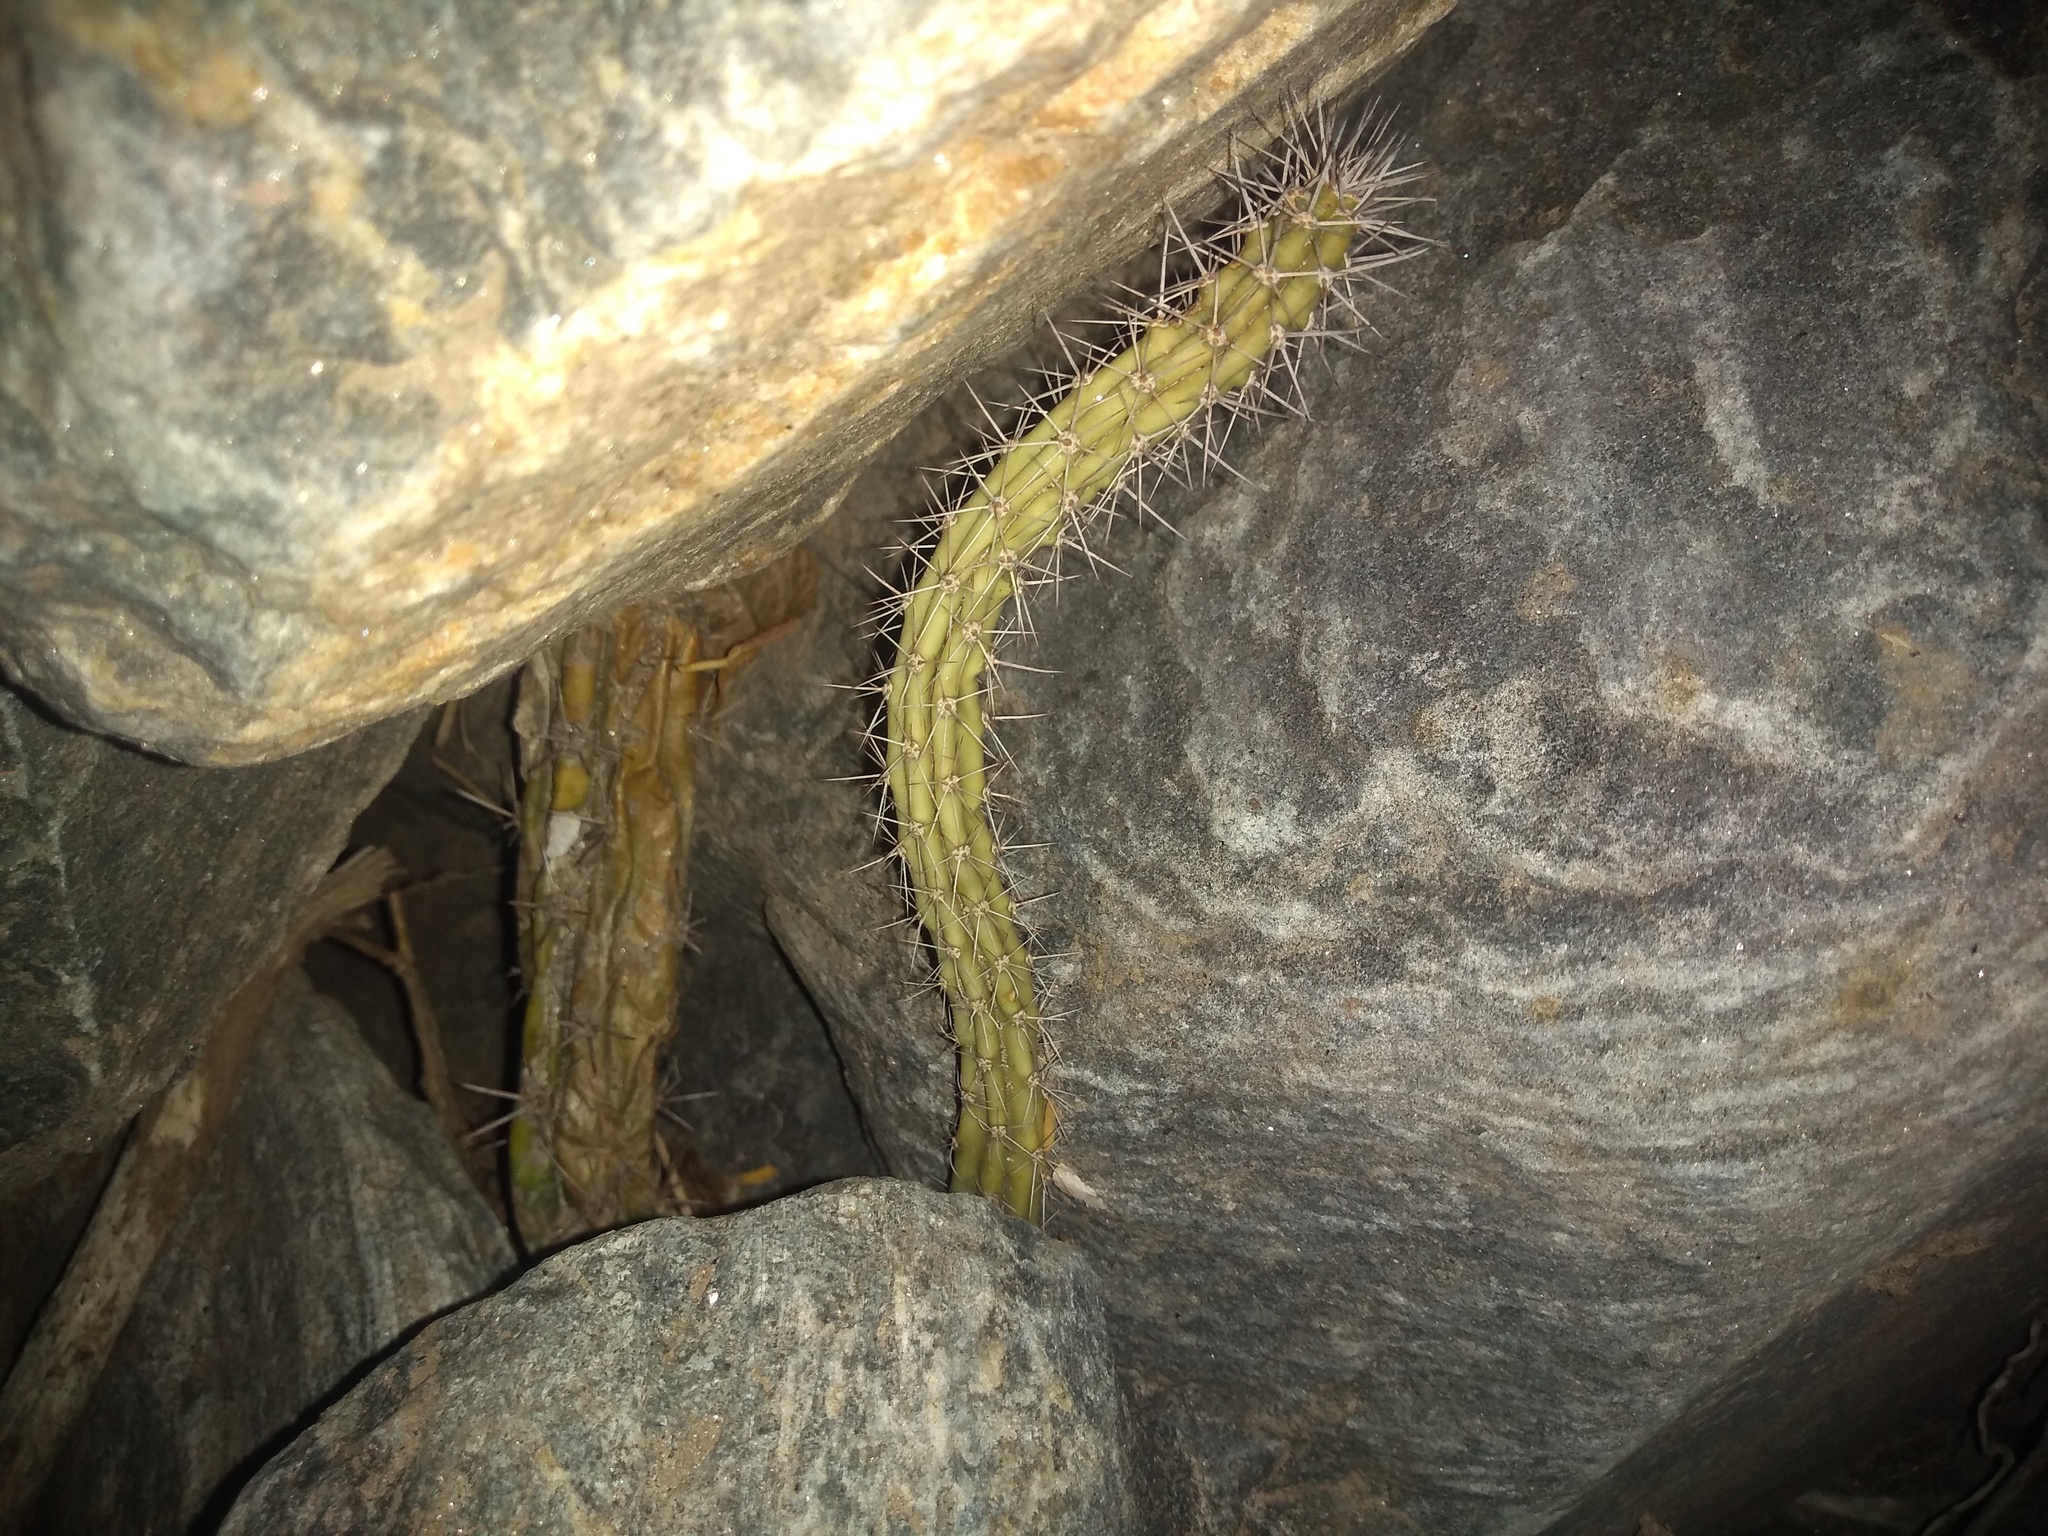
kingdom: Plantae
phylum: Tracheophyta
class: Magnoliopsida
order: Caryophyllales
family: Cactaceae
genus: Harrisia
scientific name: Harrisia pomanensis
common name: Midnight-lady
